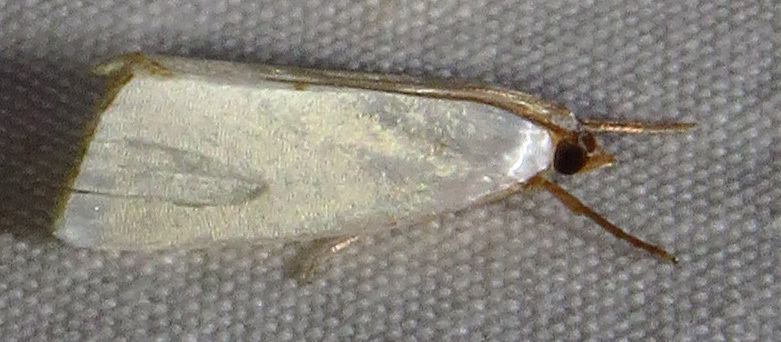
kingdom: Animalia
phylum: Arthropoda
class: Insecta
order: Lepidoptera
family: Crambidae
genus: Argyria
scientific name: Argyria nivalis
